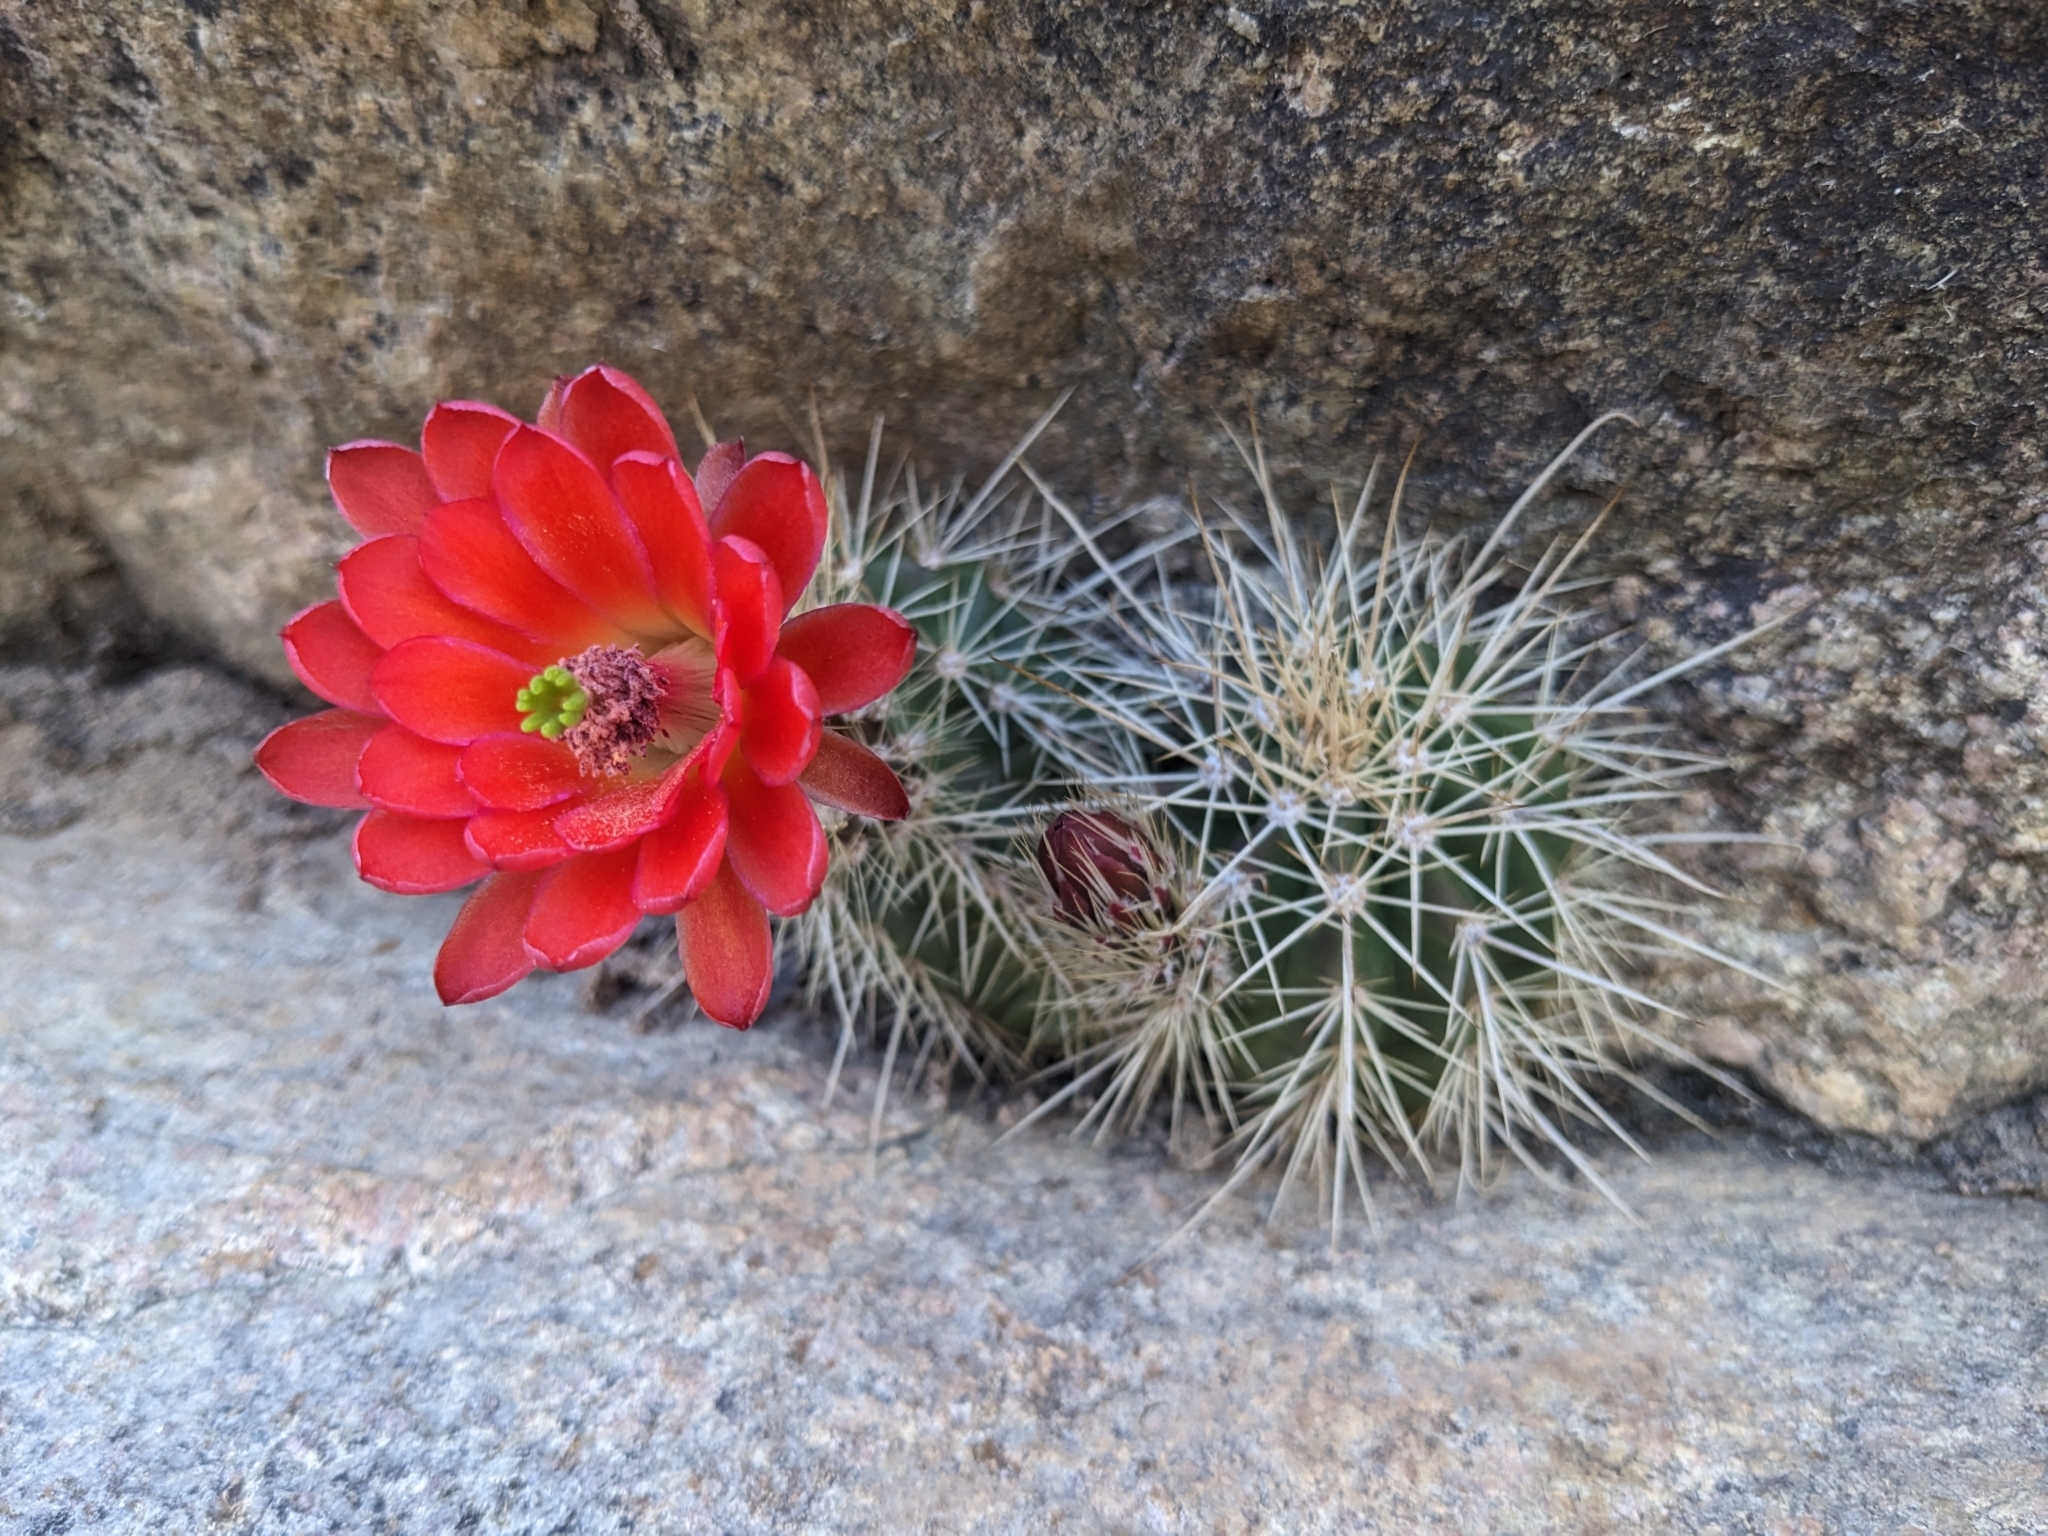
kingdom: Plantae
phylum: Tracheophyta
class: Magnoliopsida
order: Caryophyllales
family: Cactaceae
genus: Echinocereus
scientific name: Echinocereus coccineus
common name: Scarlet hedgehog cactus
